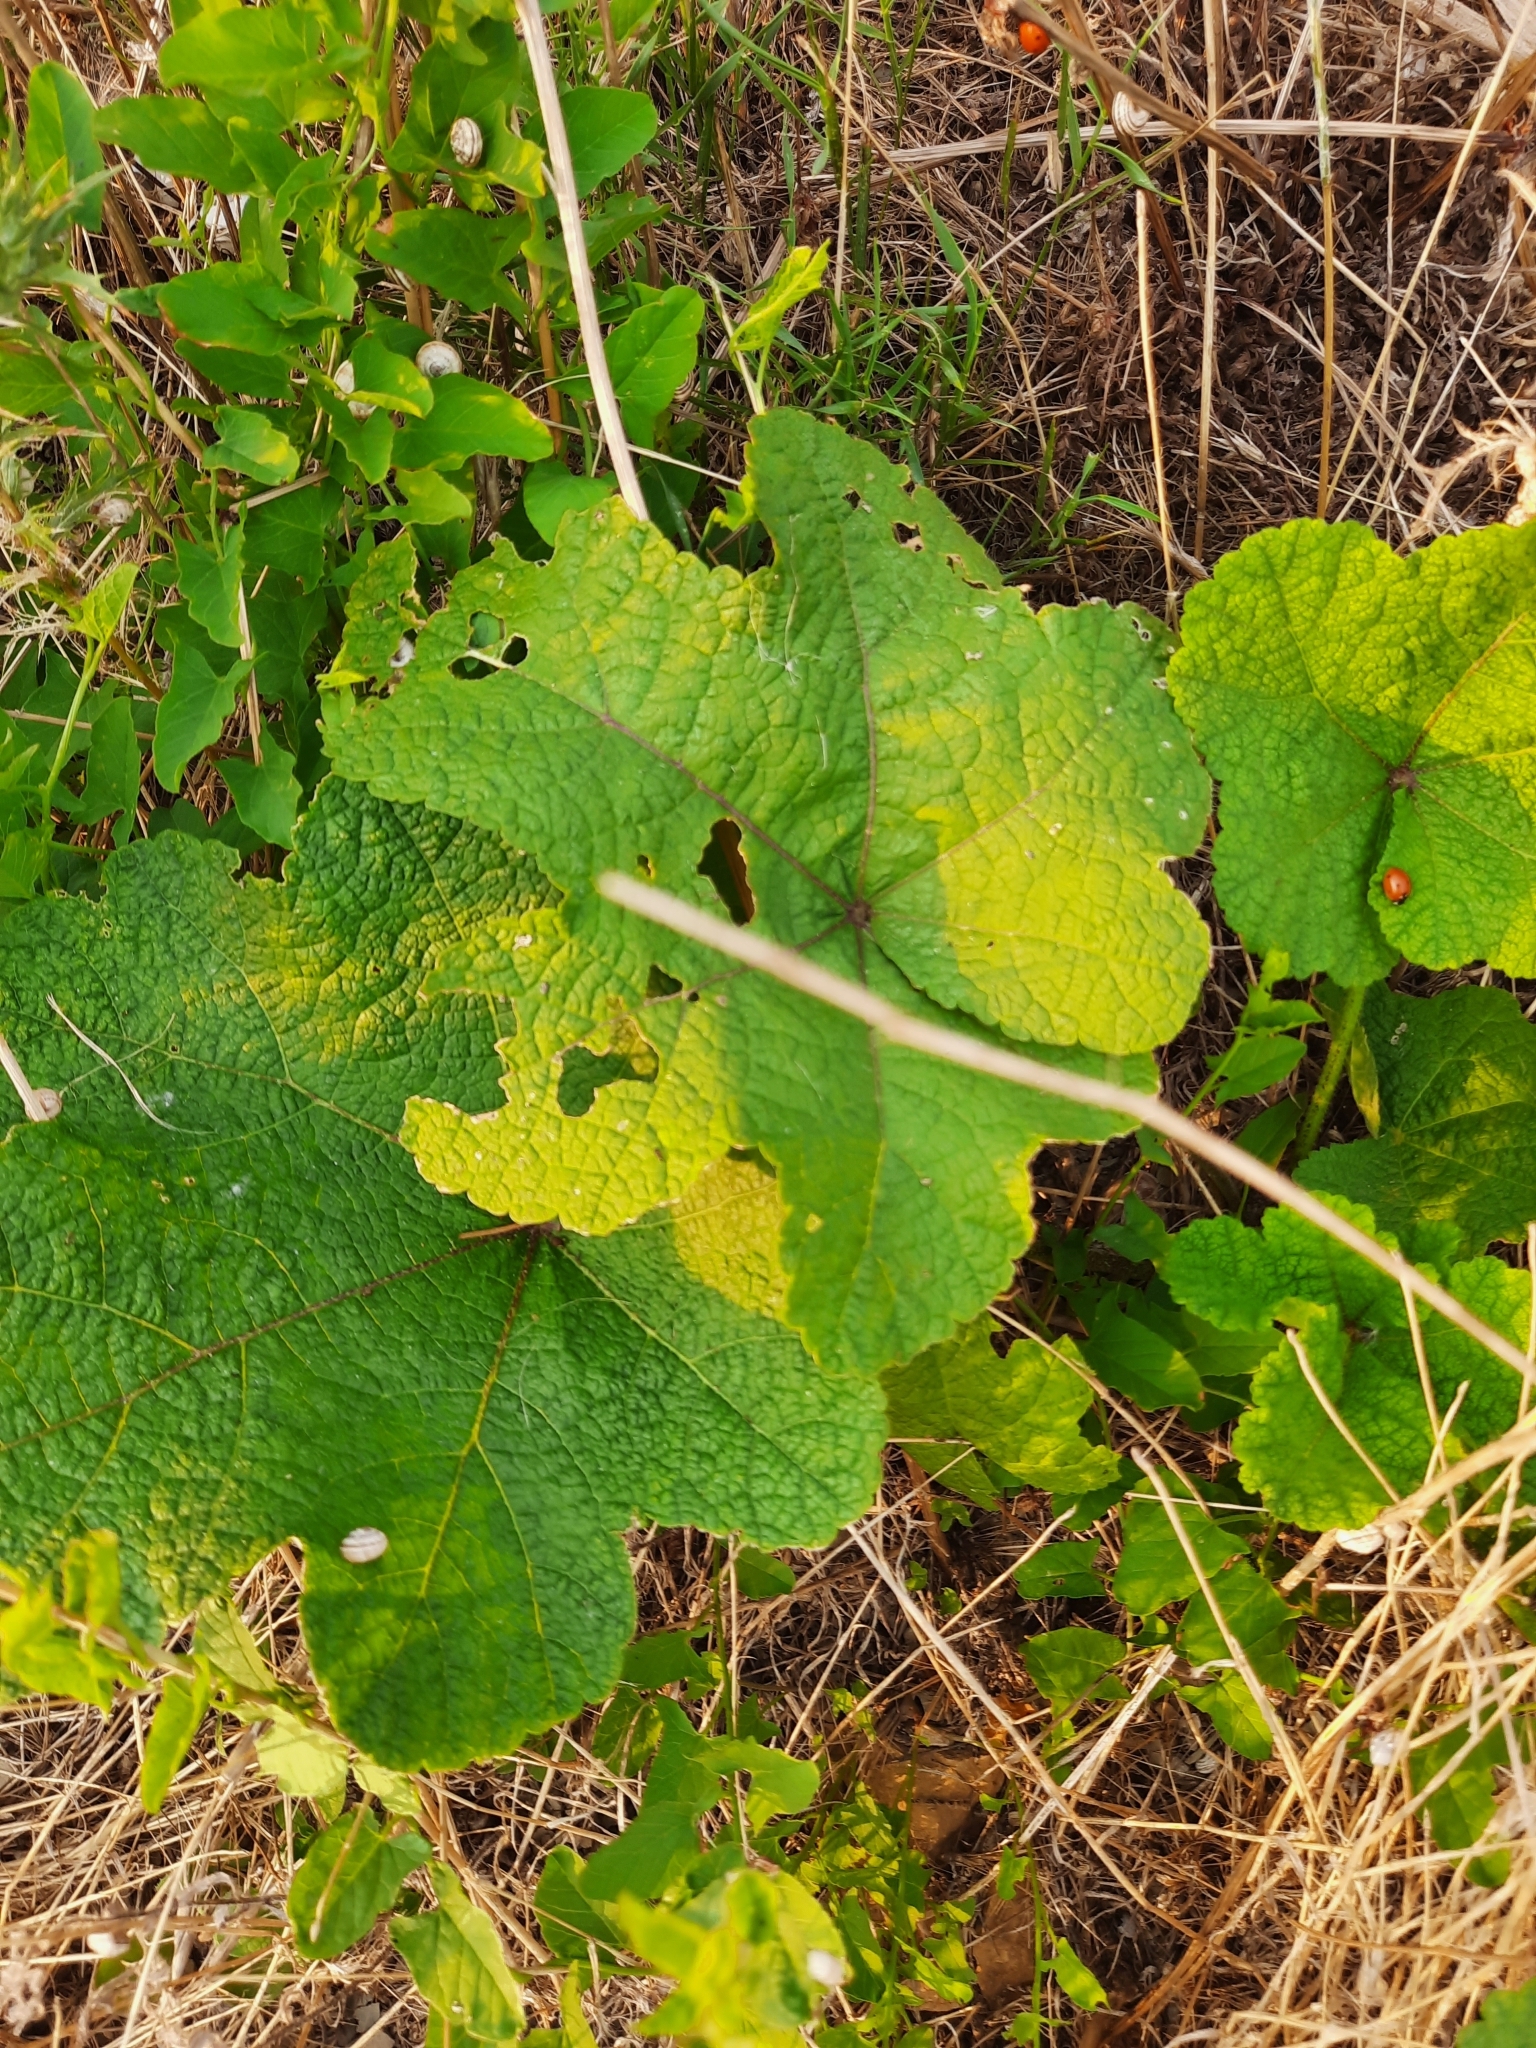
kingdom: Plantae
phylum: Tracheophyta
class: Magnoliopsida
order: Malvales
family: Malvaceae
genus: Alcea
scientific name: Alcea rugosa
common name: Russian hollyhock
